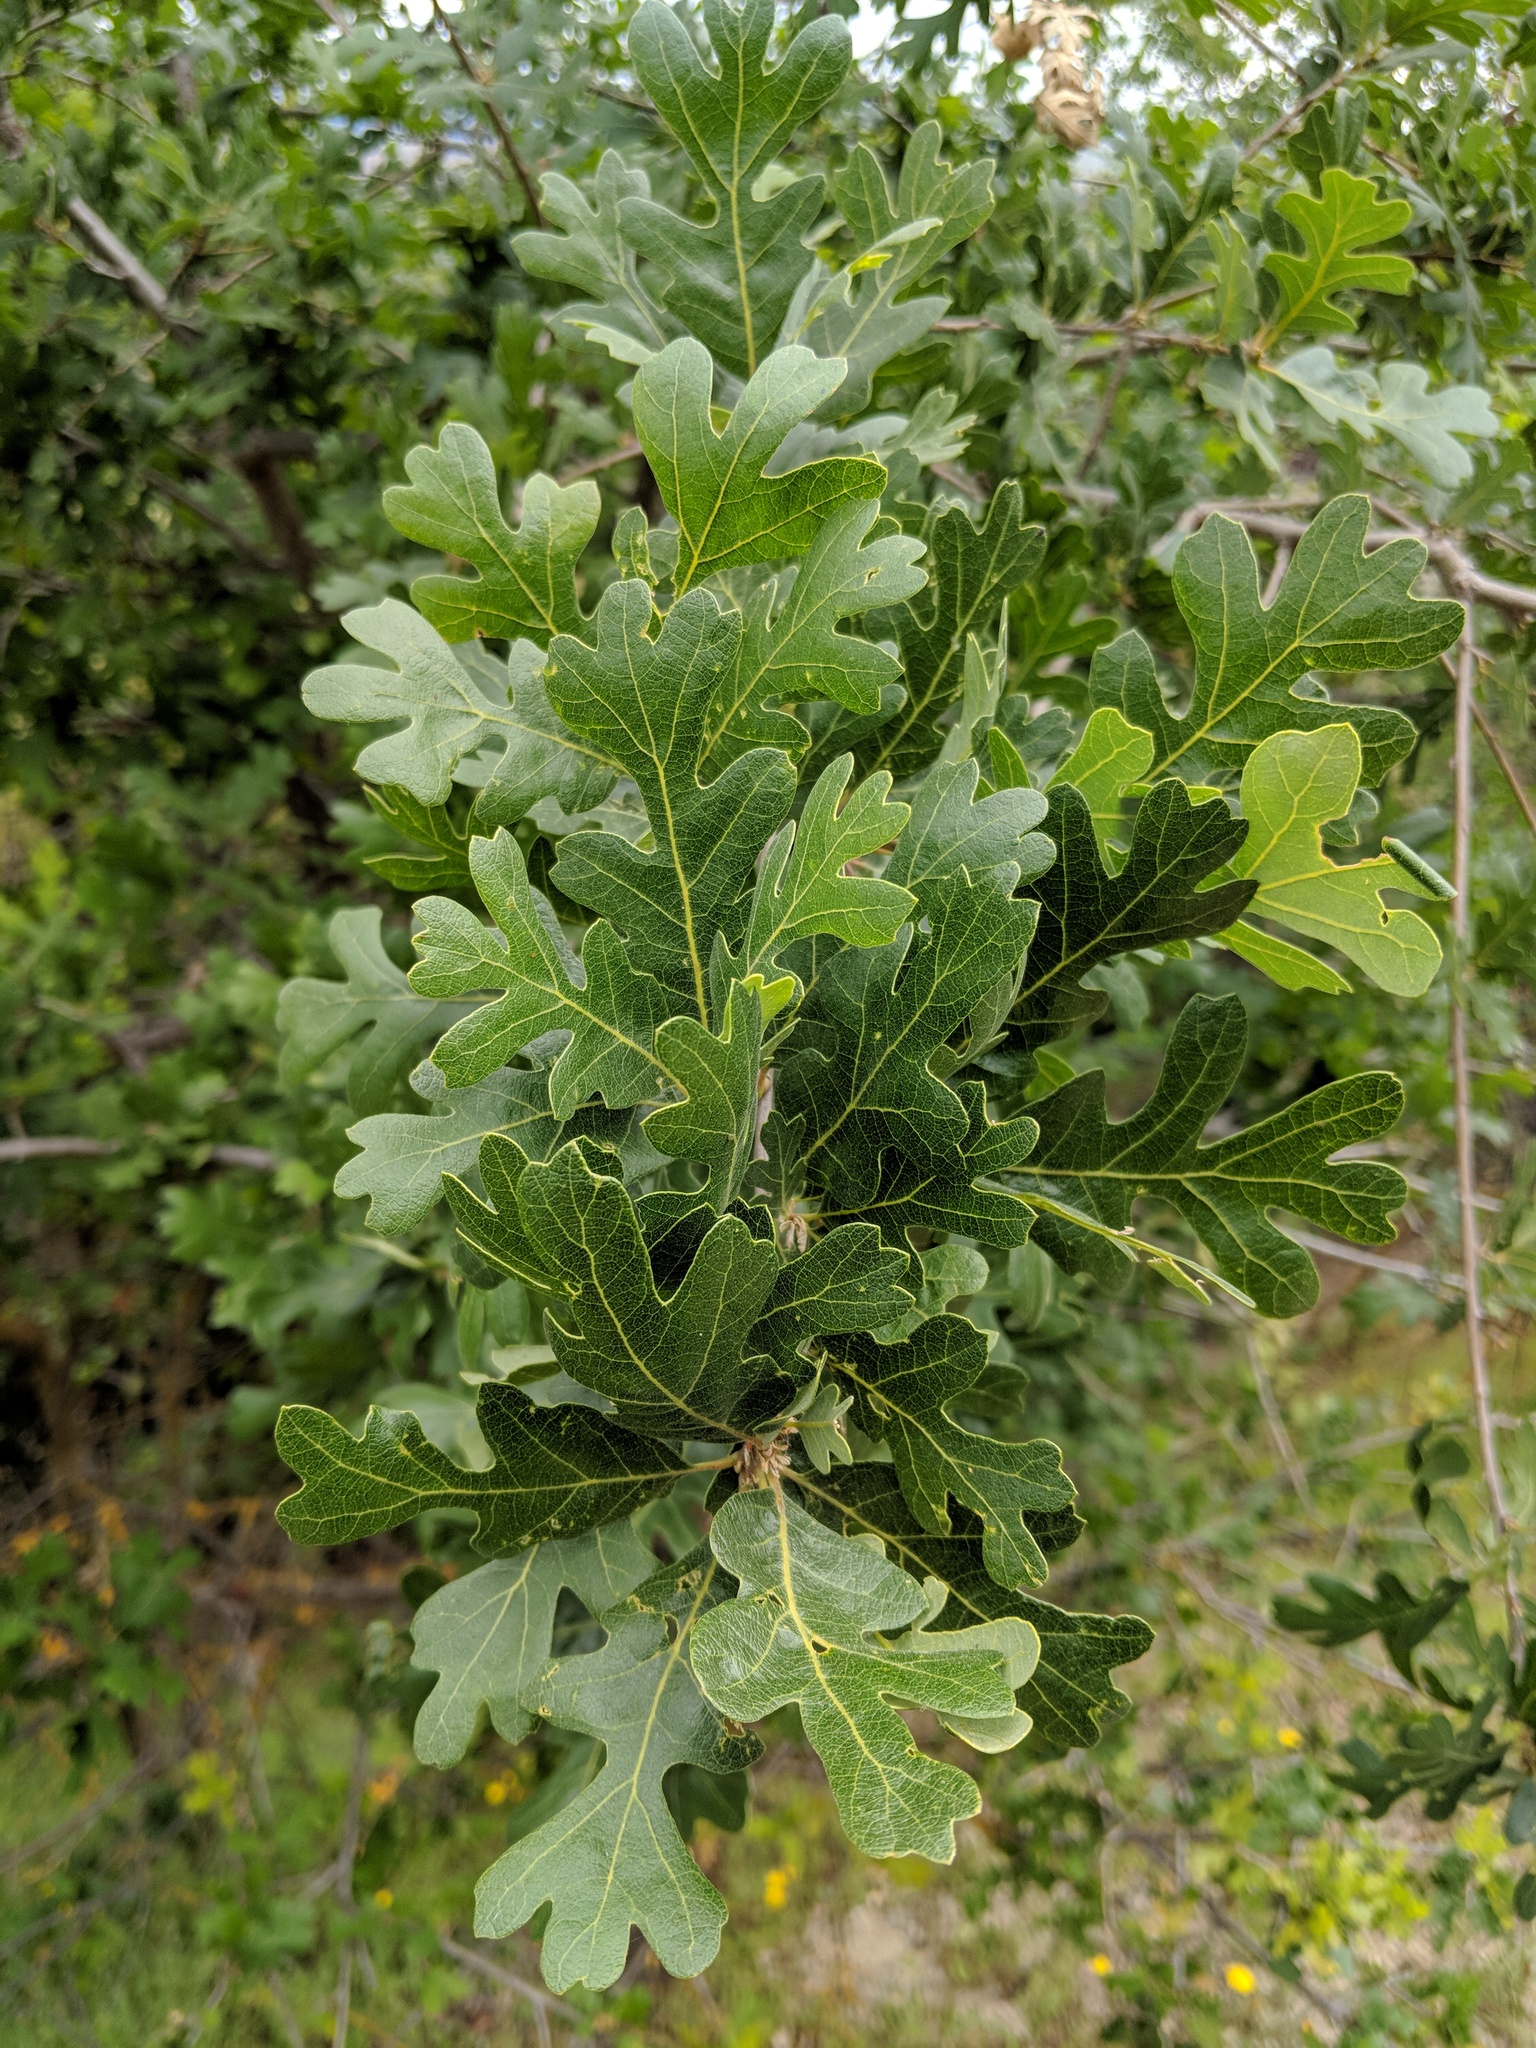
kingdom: Plantae
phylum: Tracheophyta
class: Magnoliopsida
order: Fagales
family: Fagaceae
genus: Quercus
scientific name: Quercus lobata
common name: Valley oak
